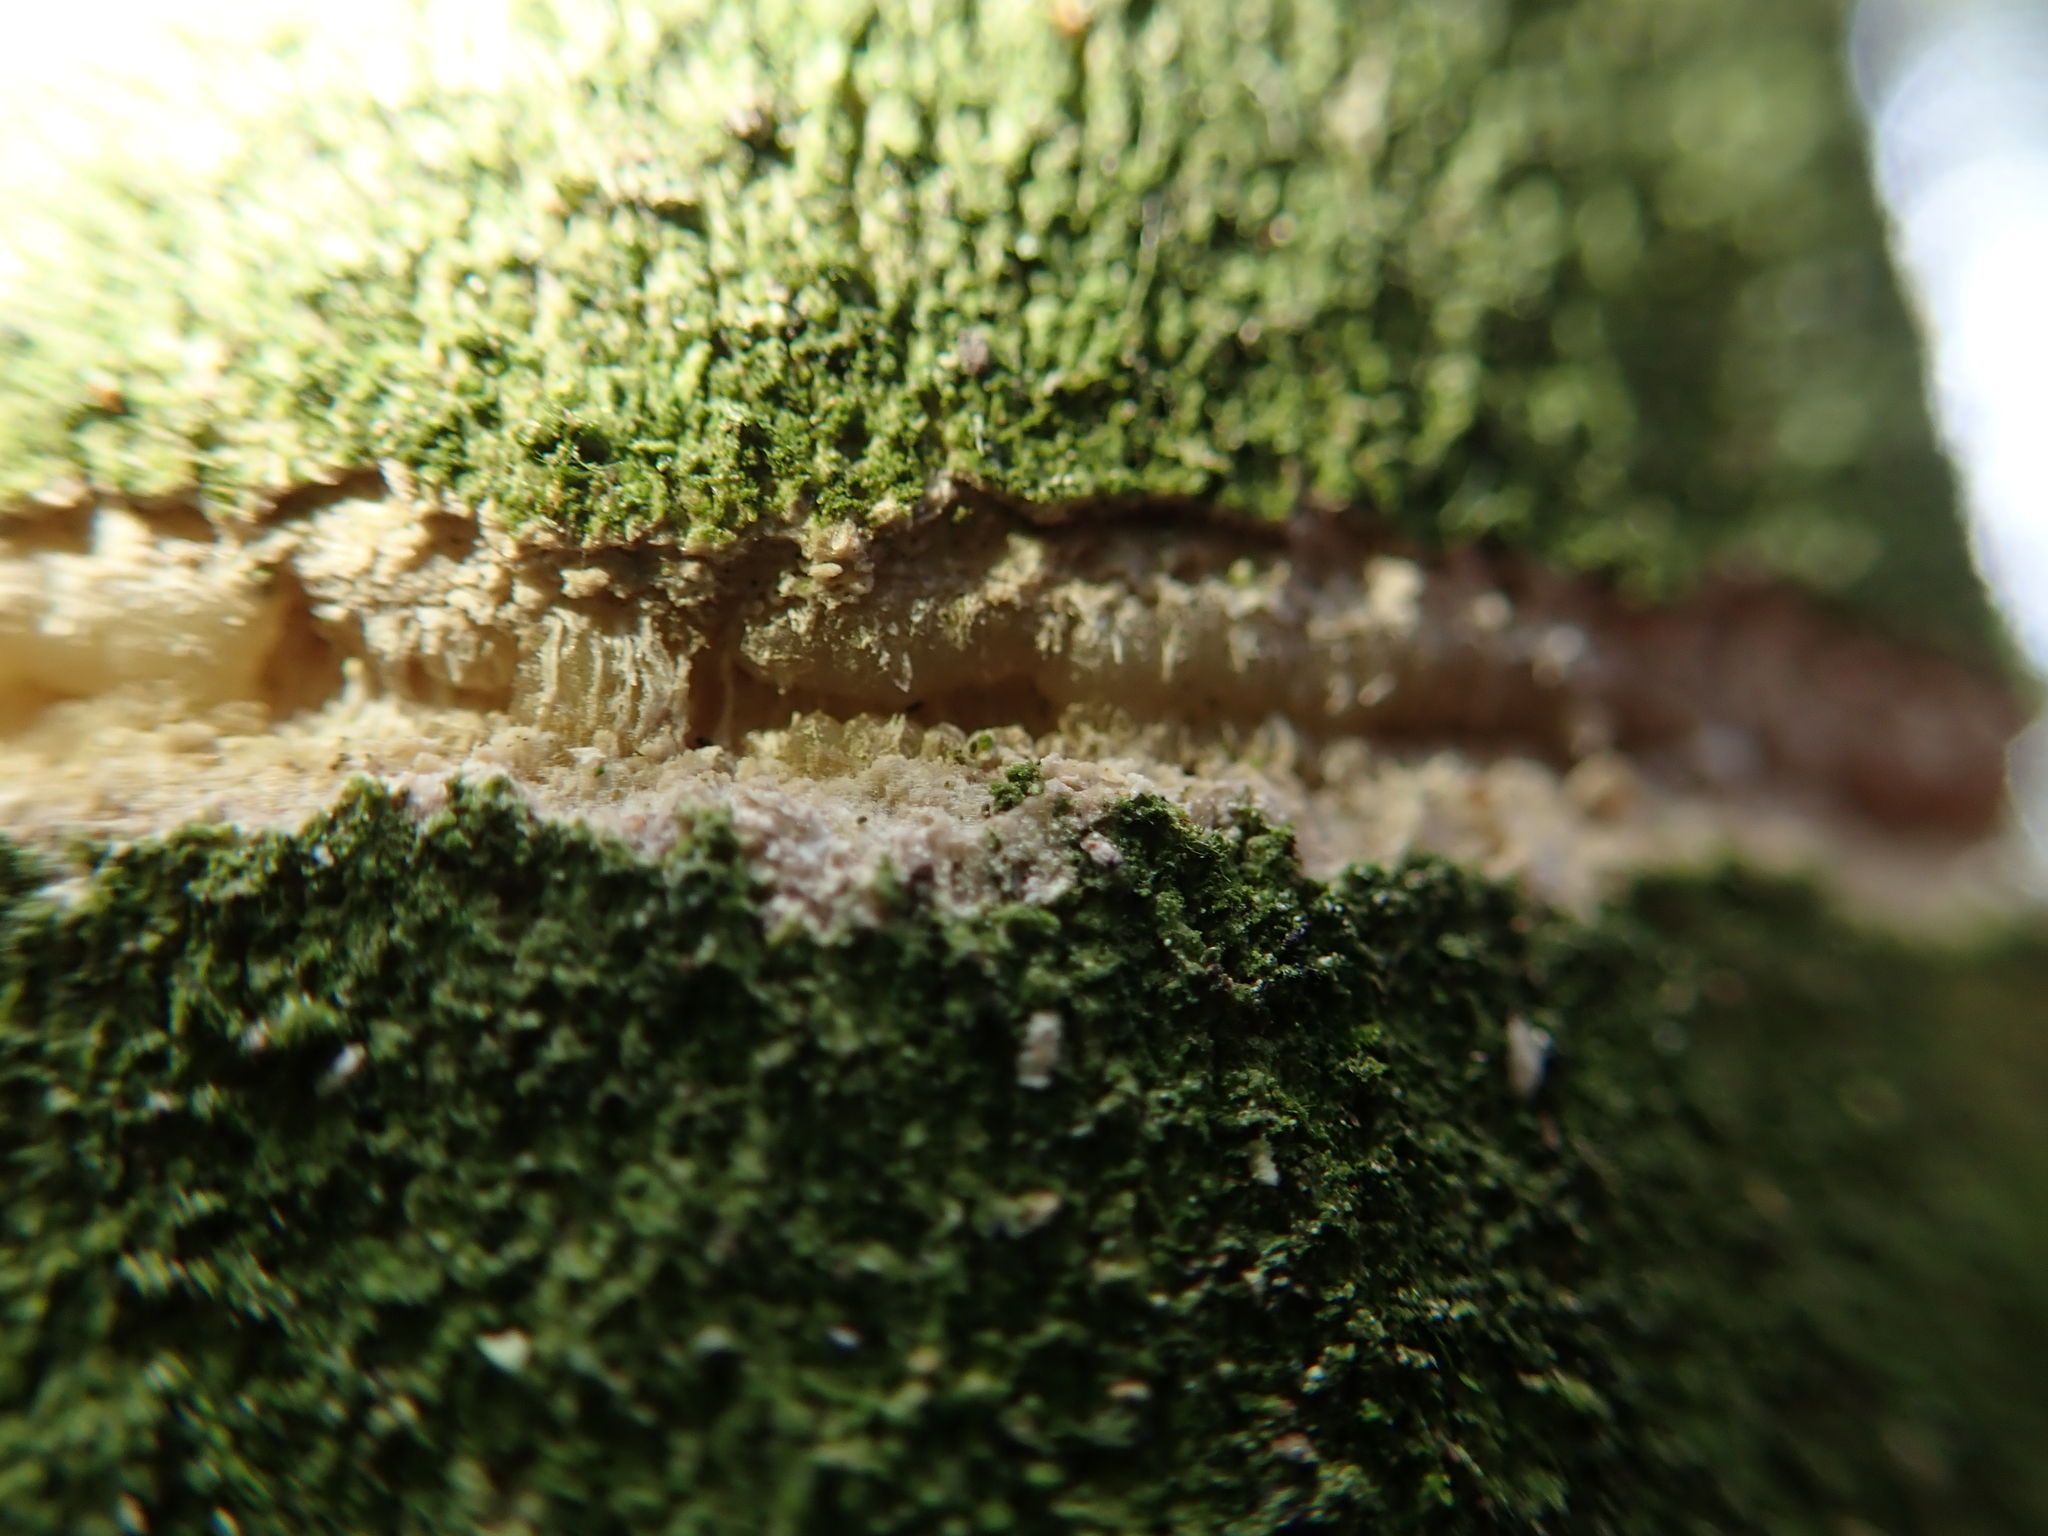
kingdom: Animalia
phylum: Chordata
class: Aves
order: Psittaciformes
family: Psittacidae
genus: Nestor
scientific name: Nestor meridionalis
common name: New zealand kaka
